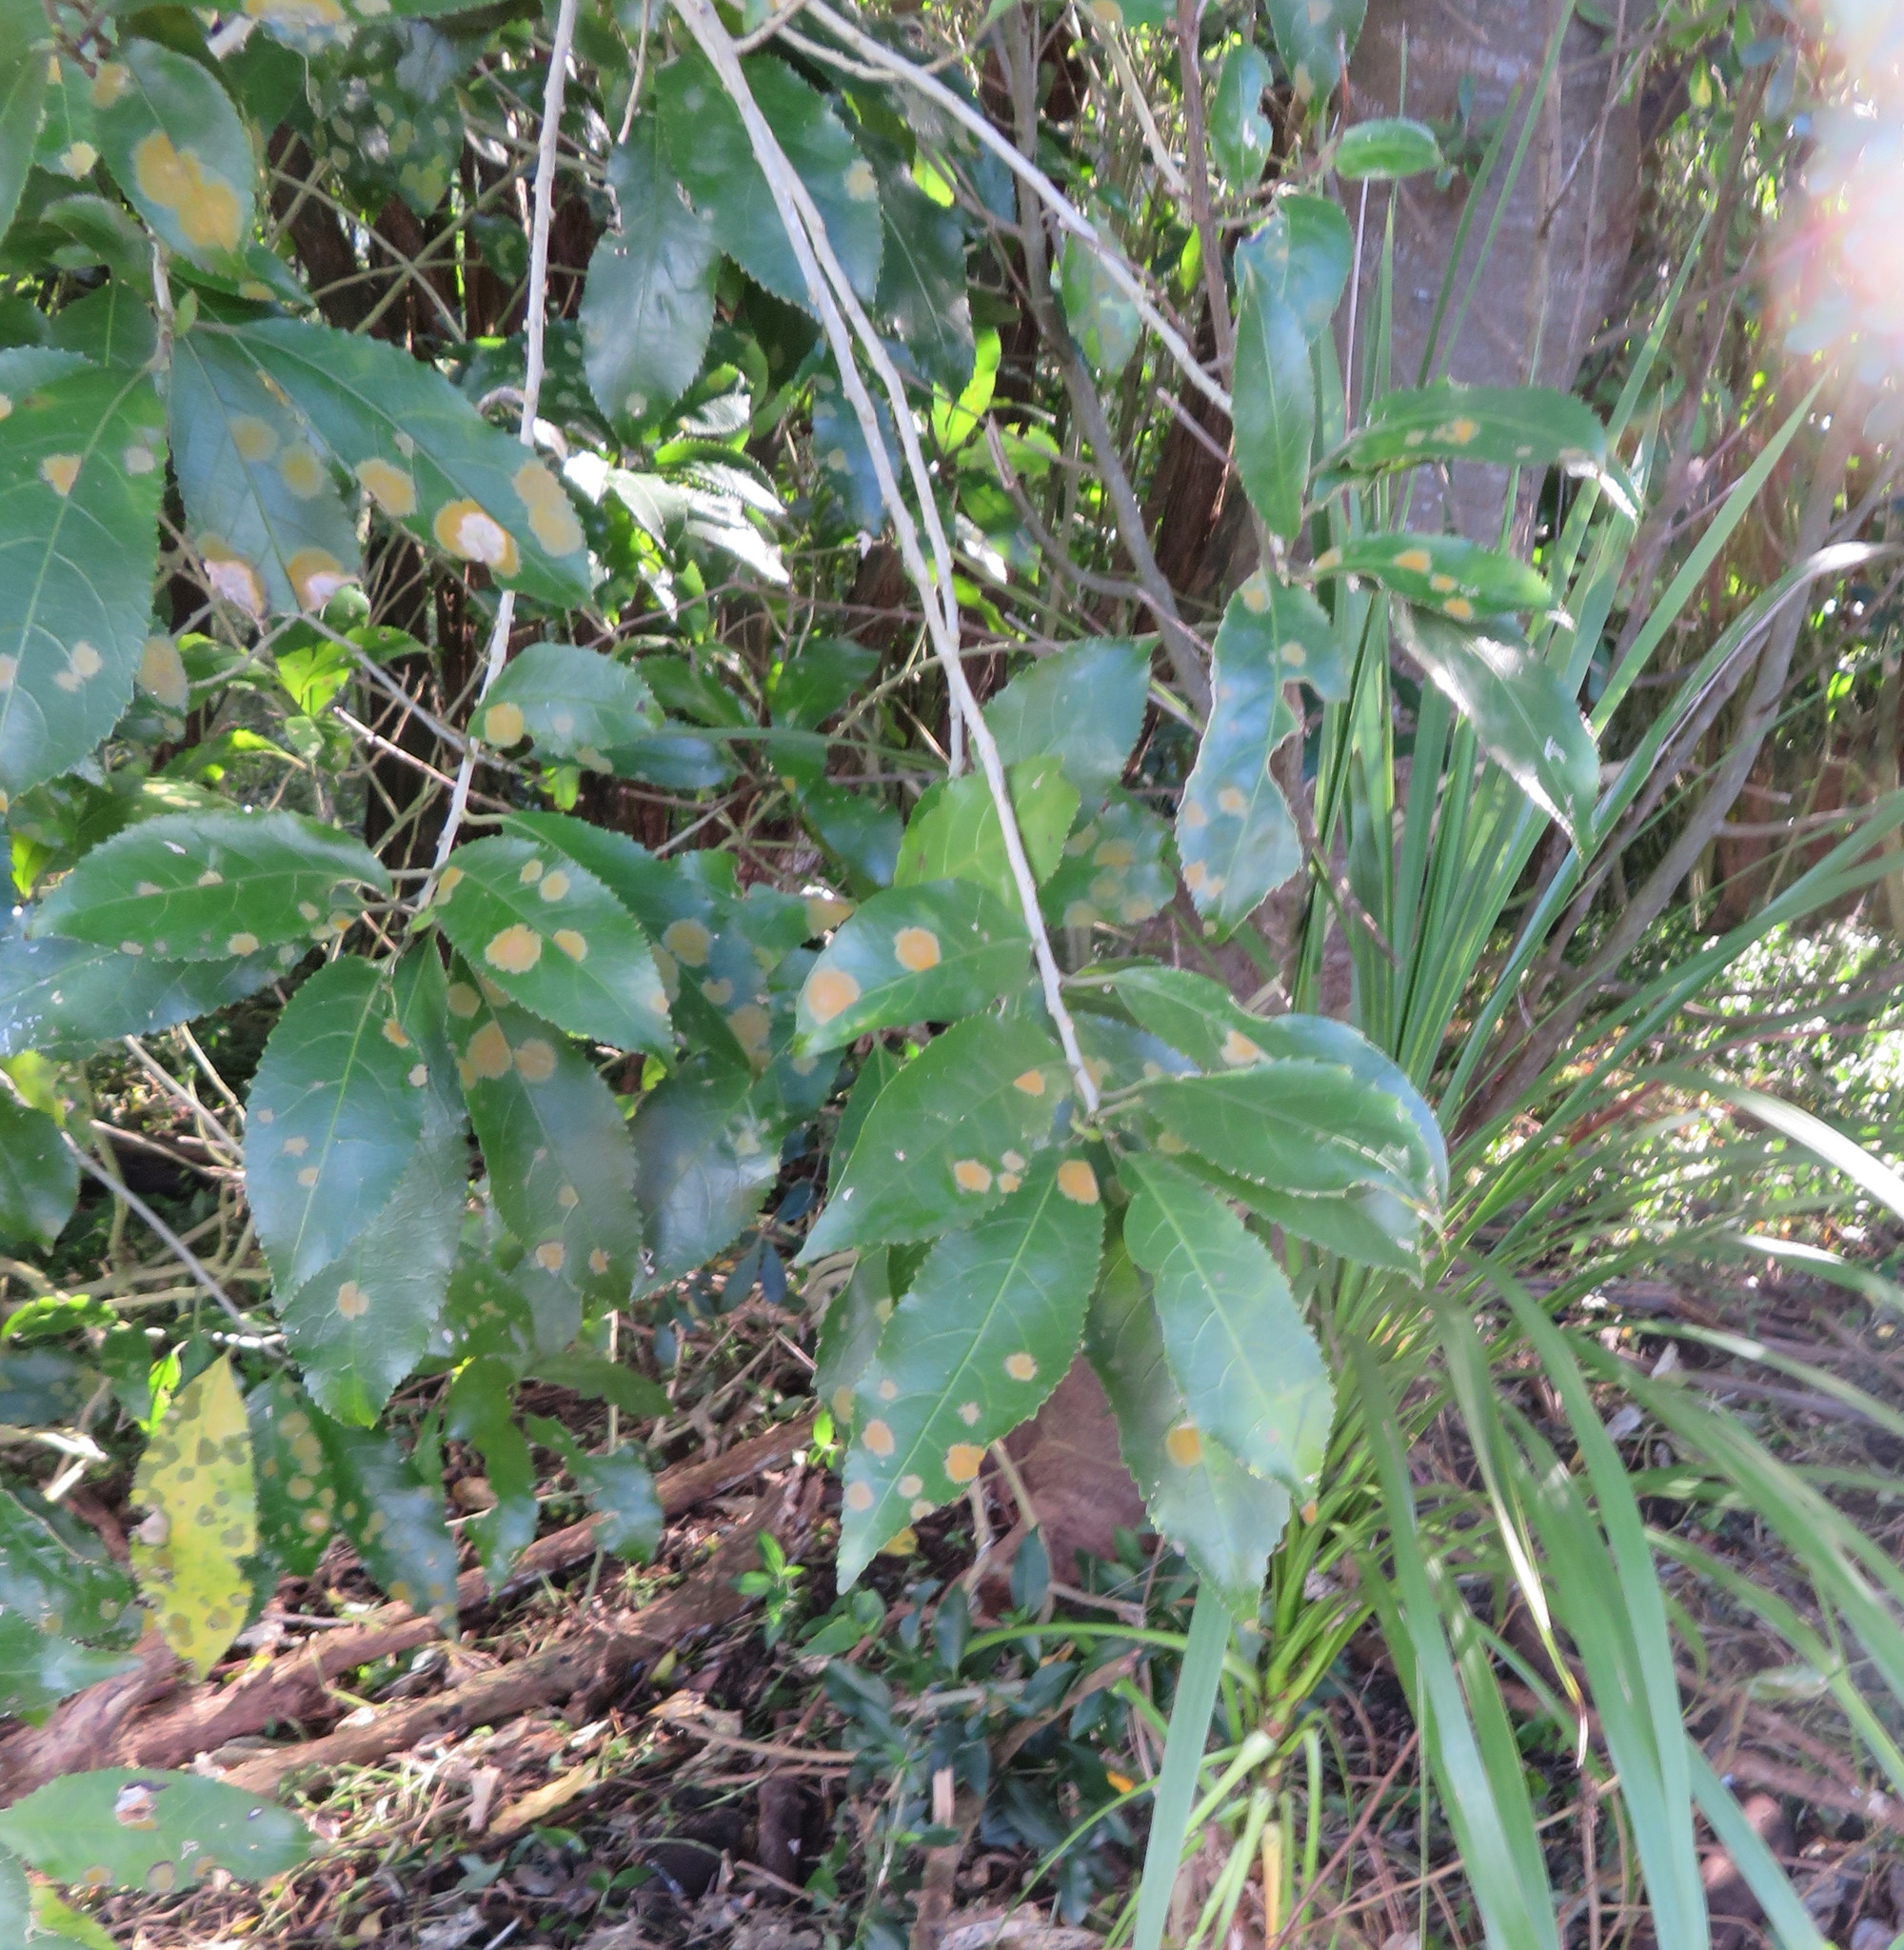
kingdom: Plantae
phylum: Tracheophyta
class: Magnoliopsida
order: Malpighiales
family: Violaceae
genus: Melicytus
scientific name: Melicytus ramiflorus
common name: Mahoe
